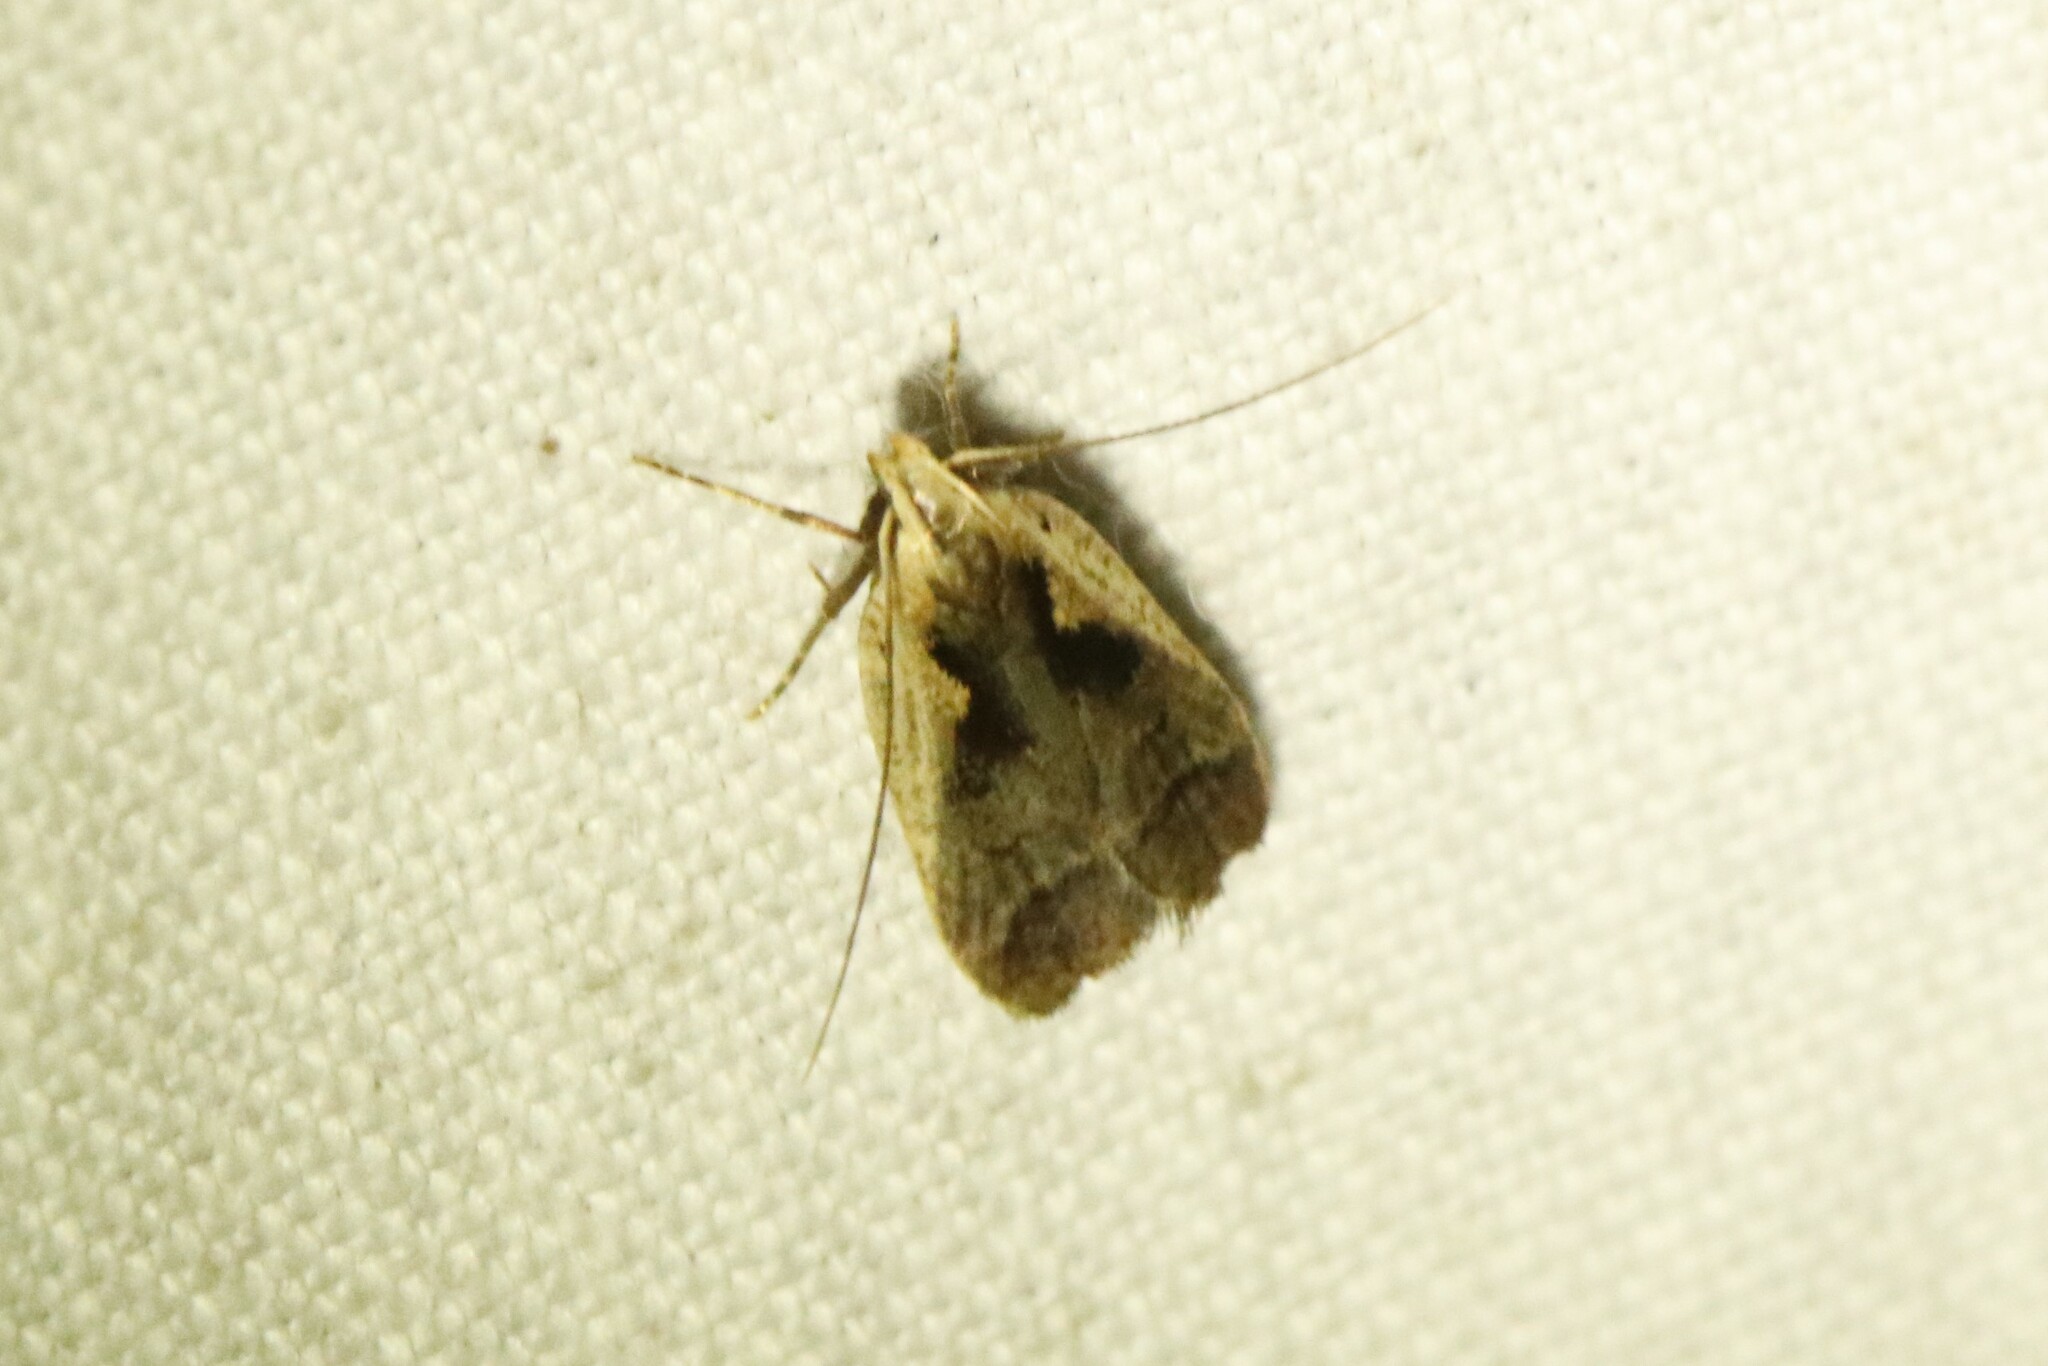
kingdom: Animalia
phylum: Arthropoda
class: Insecta
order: Lepidoptera
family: Gelechiidae
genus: Dichomeris
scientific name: Dichomeris bilobella
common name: Bilobed dichomeris moth
